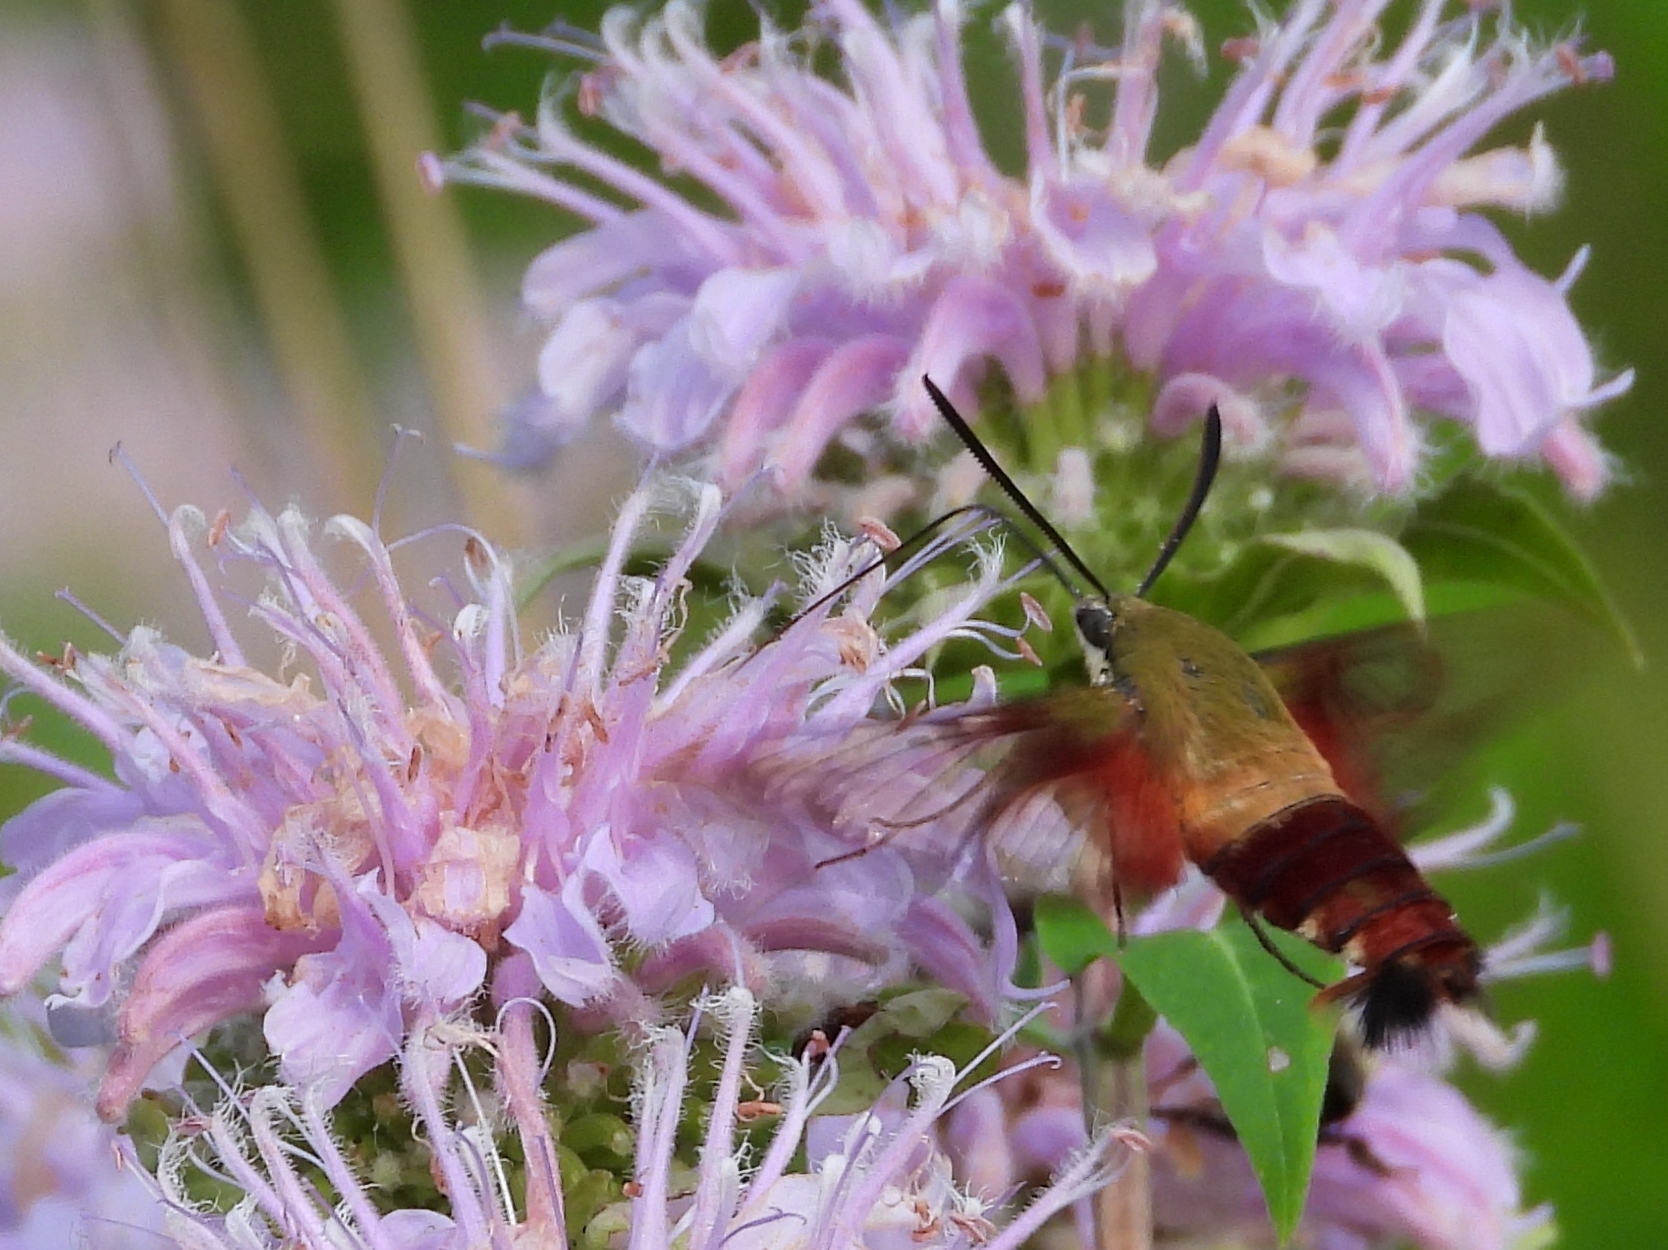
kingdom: Animalia
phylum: Arthropoda
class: Insecta
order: Lepidoptera
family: Sphingidae
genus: Hemaris
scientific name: Hemaris thysbe
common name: Common clear-wing
